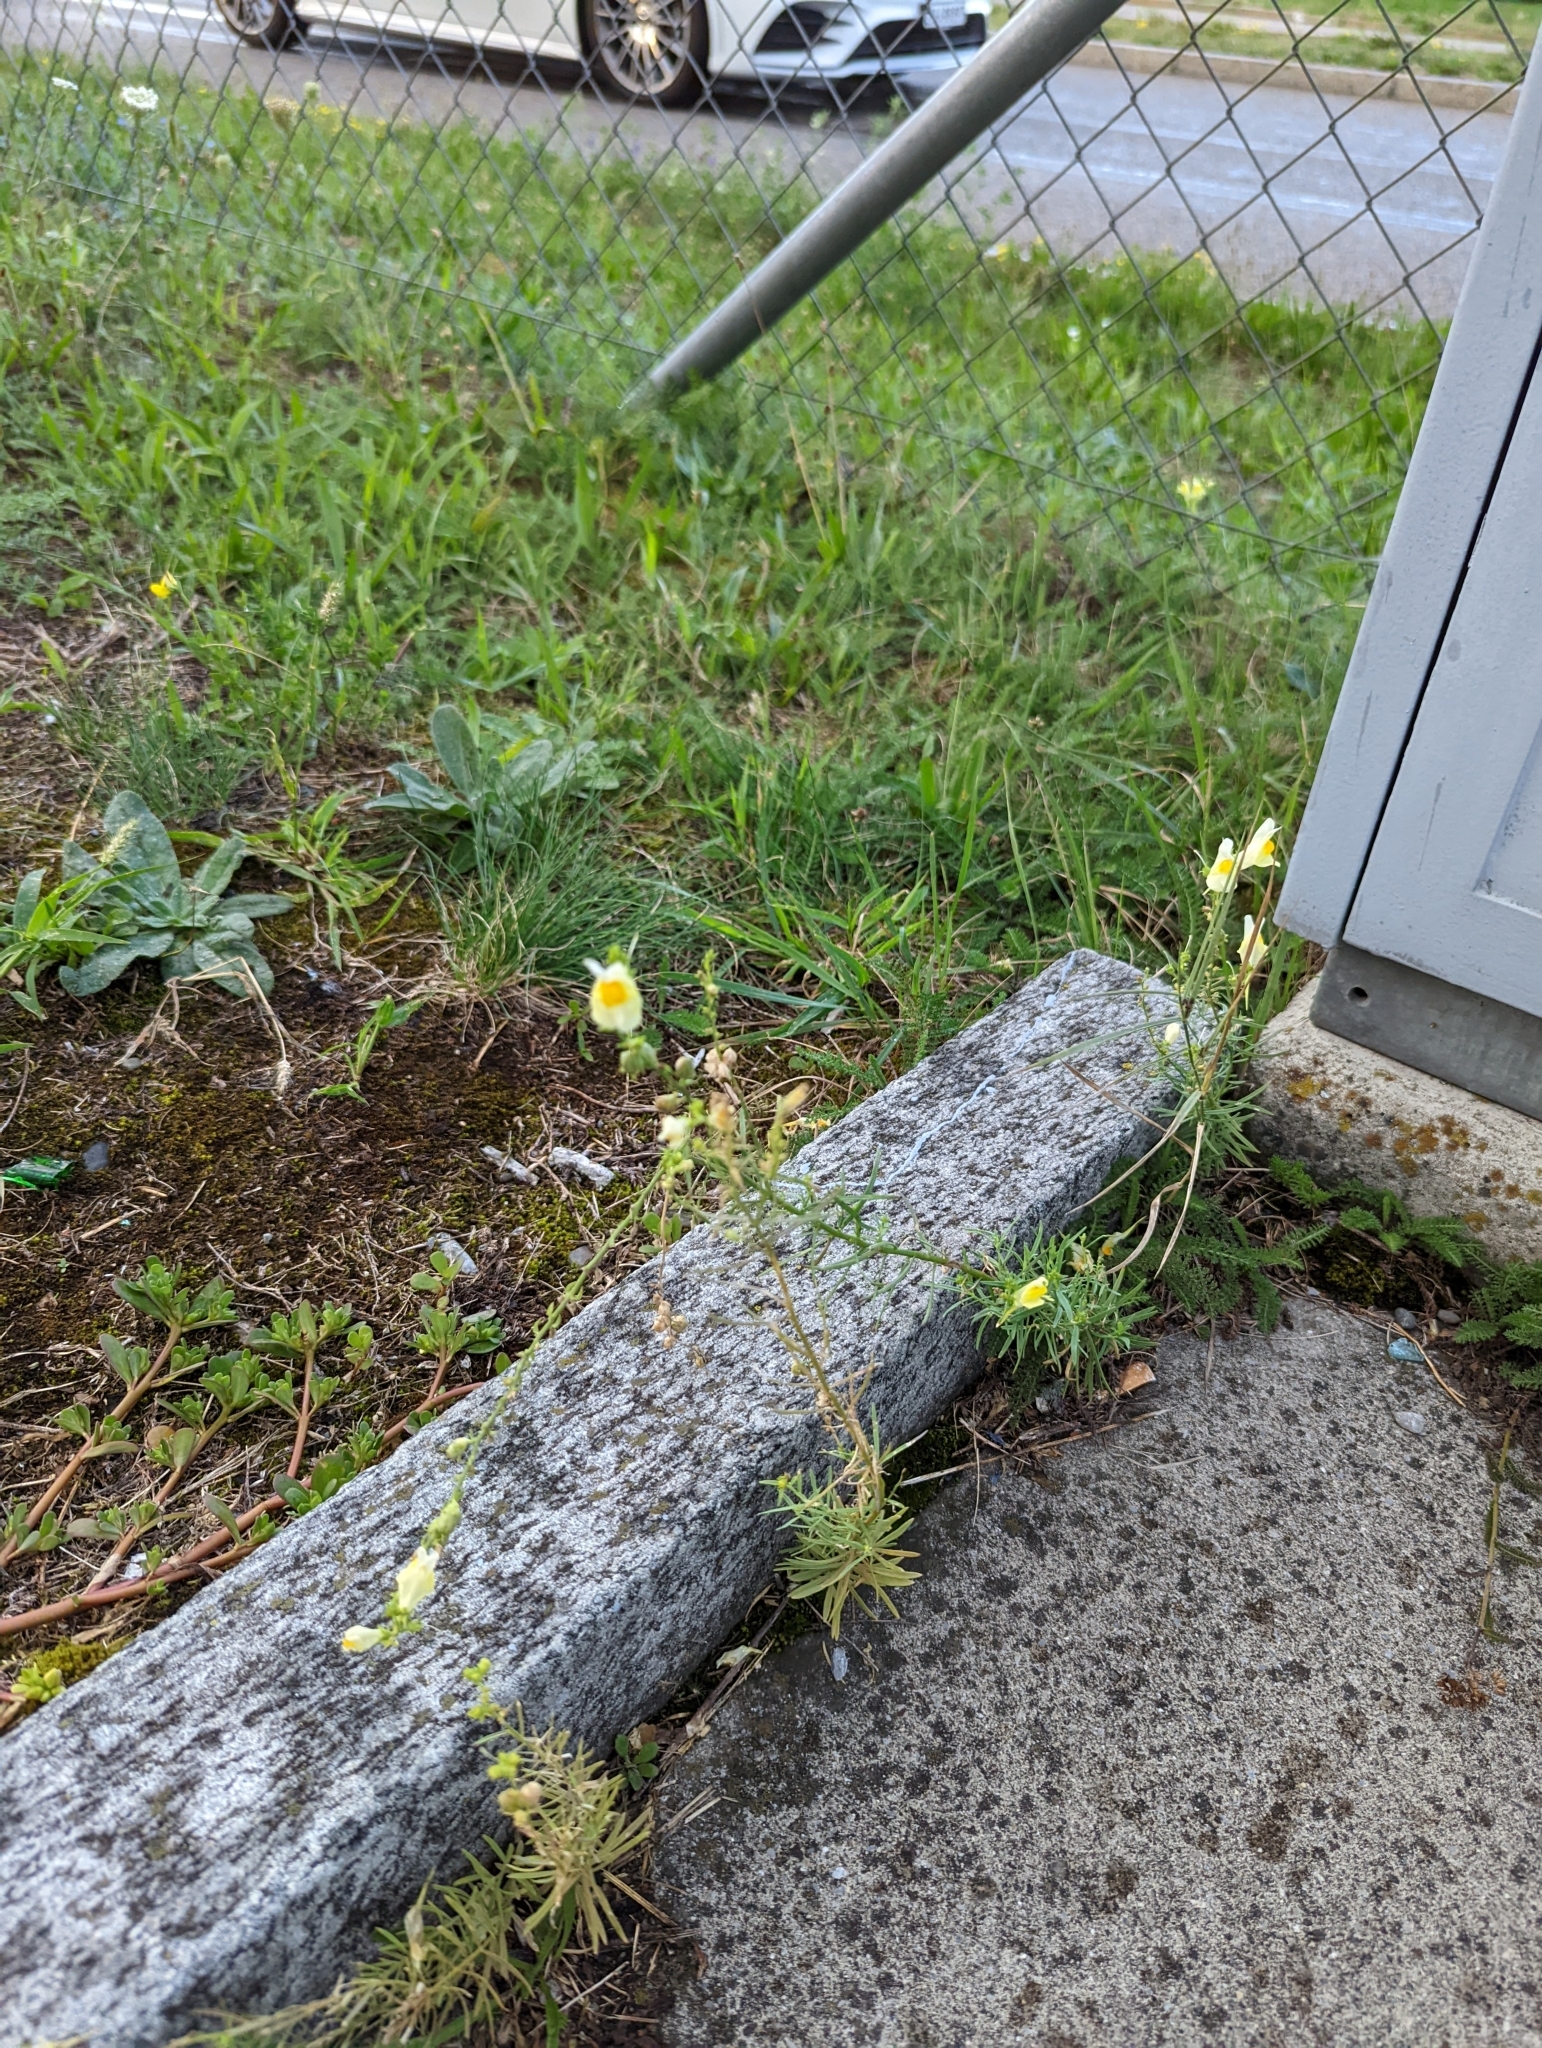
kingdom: Plantae
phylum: Tracheophyta
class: Magnoliopsida
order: Lamiales
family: Plantaginaceae
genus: Linaria
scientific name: Linaria vulgaris
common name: Butter and eggs
